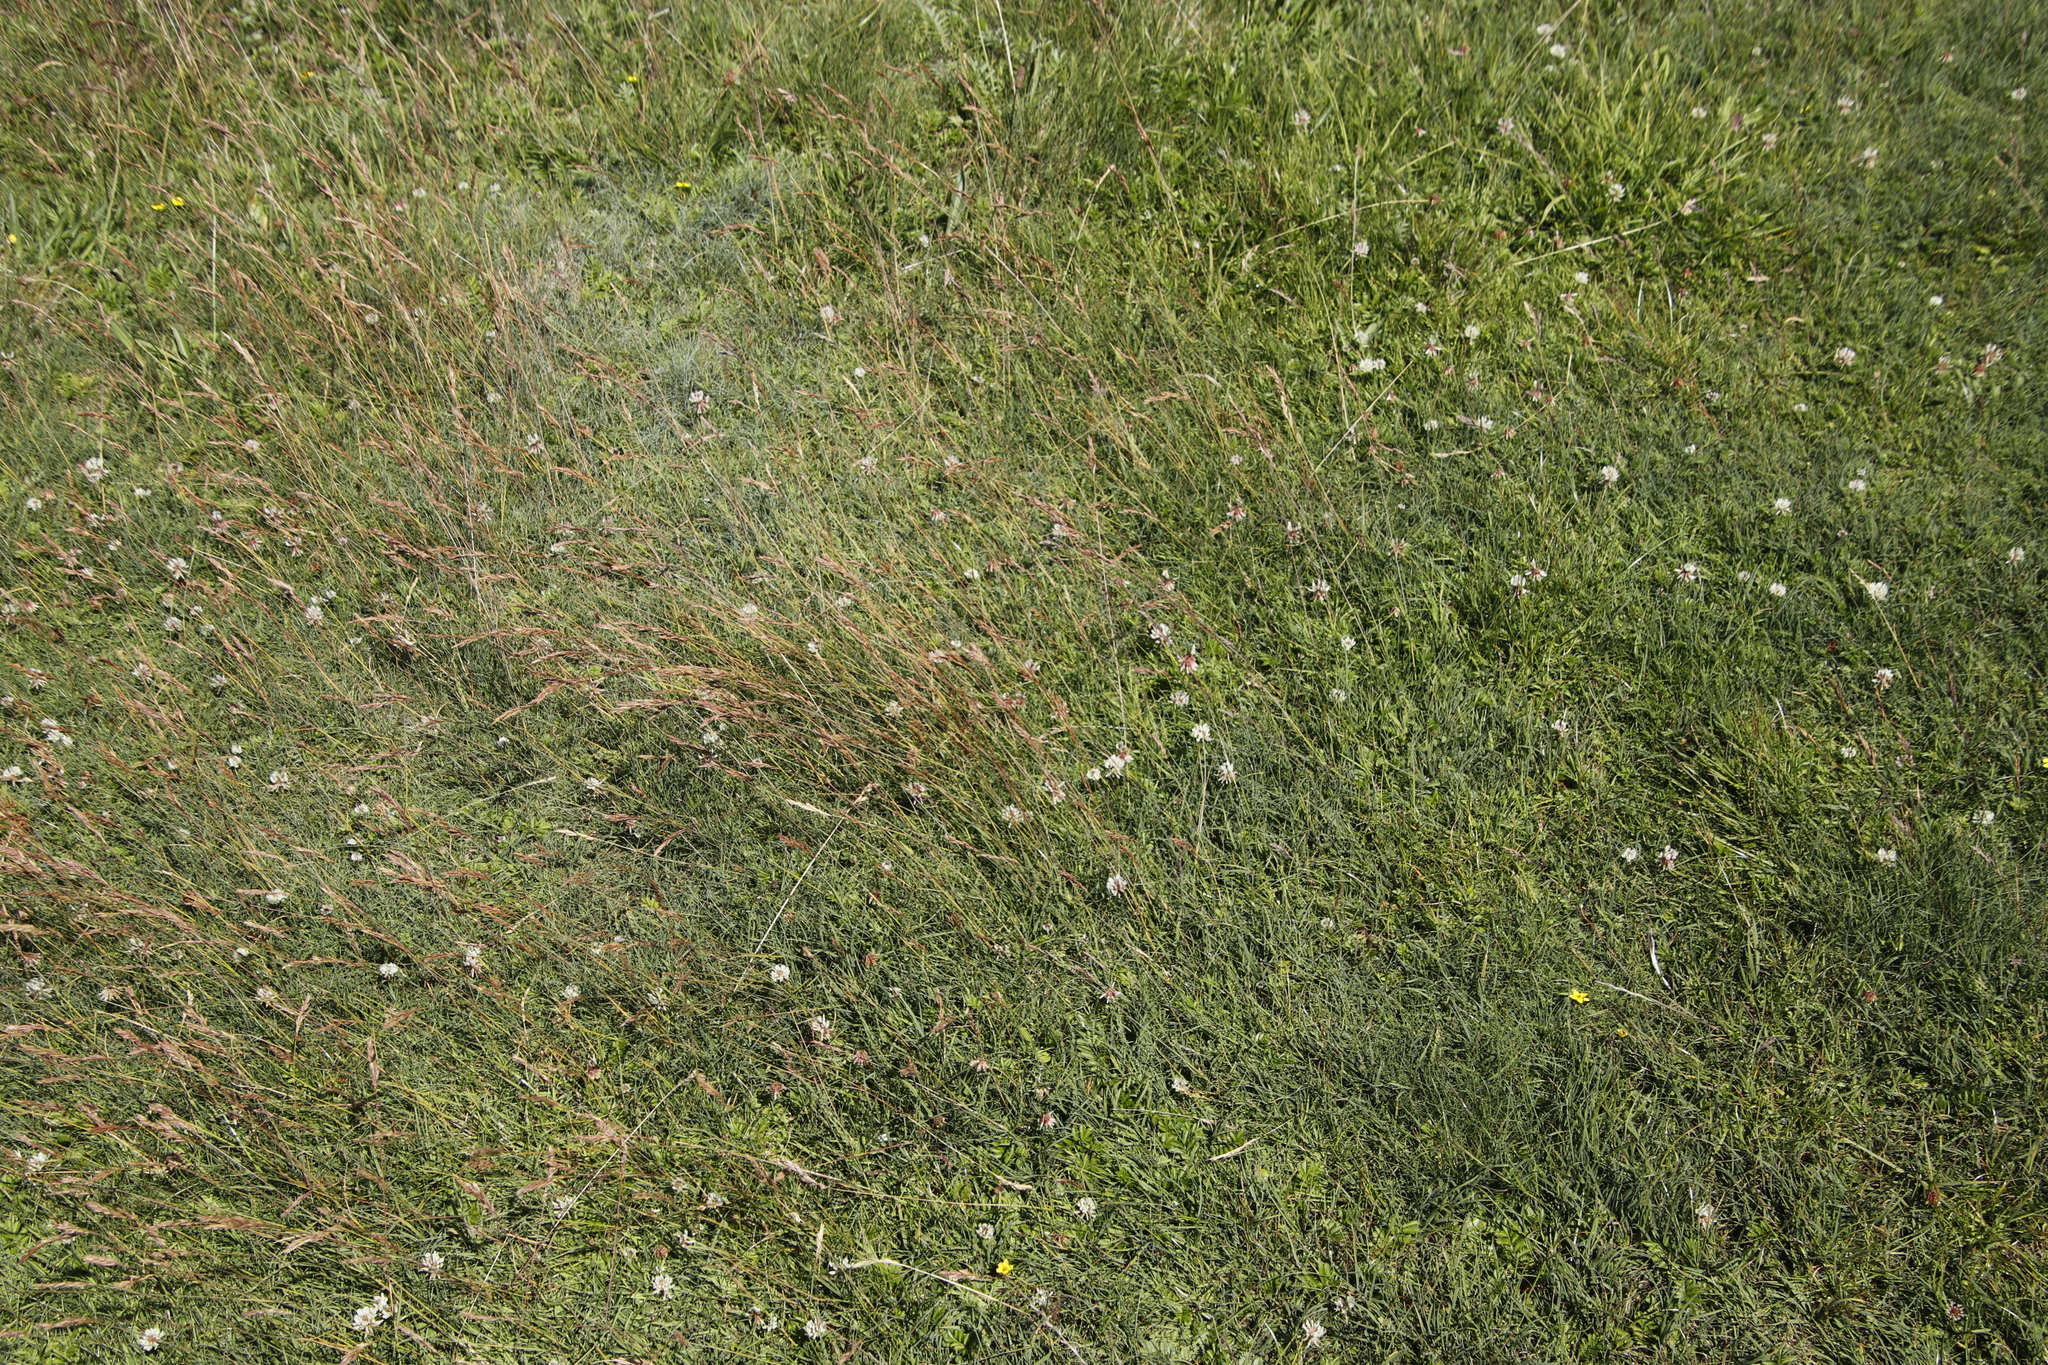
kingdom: Plantae
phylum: Tracheophyta
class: Magnoliopsida
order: Fabales
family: Fabaceae
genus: Trifolium
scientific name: Trifolium repens
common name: White clover
